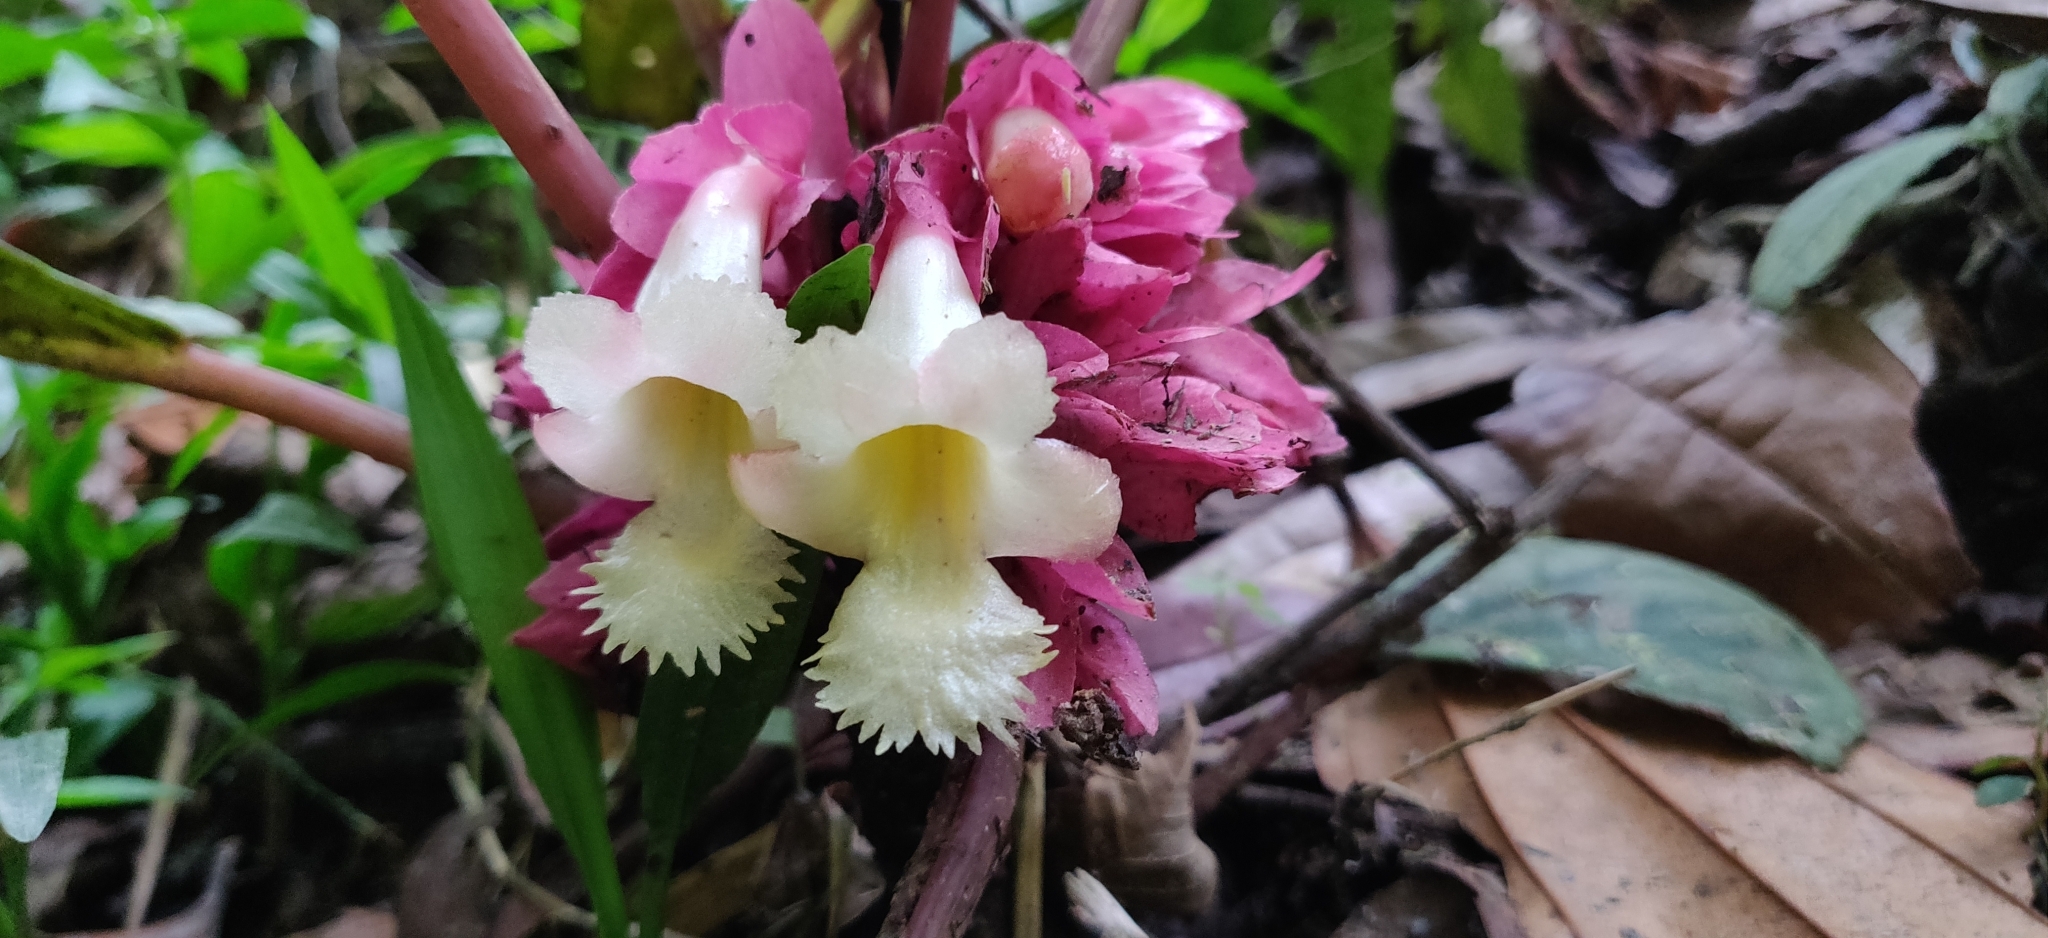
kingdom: Plantae
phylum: Tracheophyta
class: Magnoliopsida
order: Lamiales
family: Gesneriaceae
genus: Drymonia
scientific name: Drymonia turrialvae
